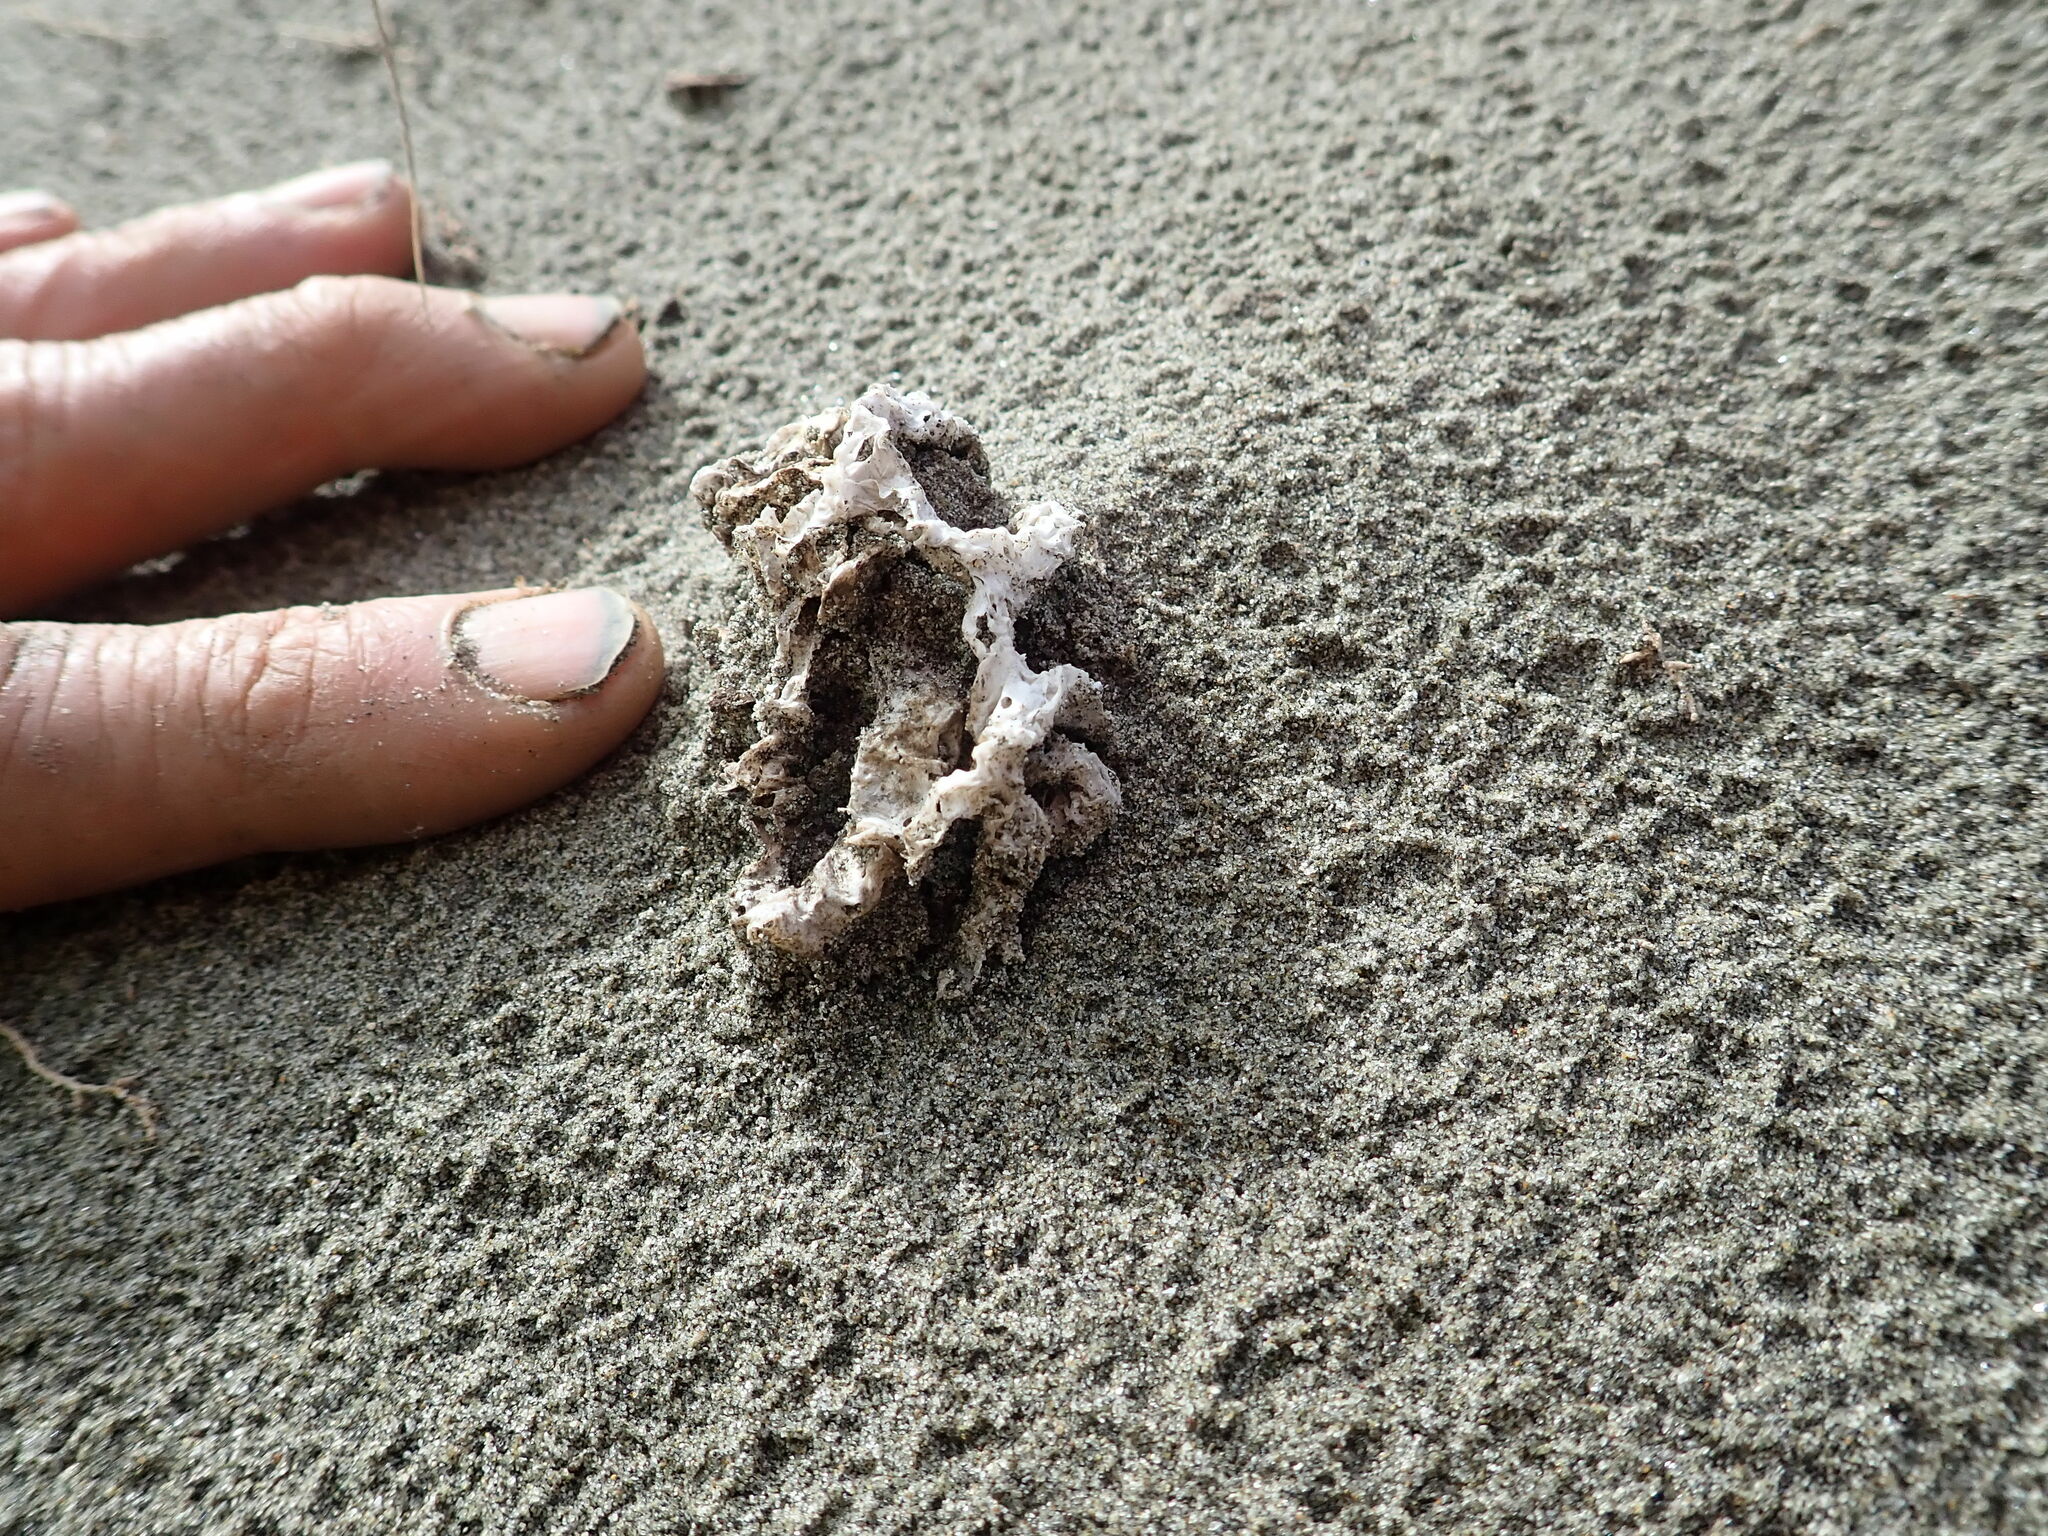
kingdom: Fungi
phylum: Basidiomycota
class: Agaricomycetes
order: Phallales
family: Phallaceae
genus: Ileodictyon
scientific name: Ileodictyon cibarium
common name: Basket fungus
